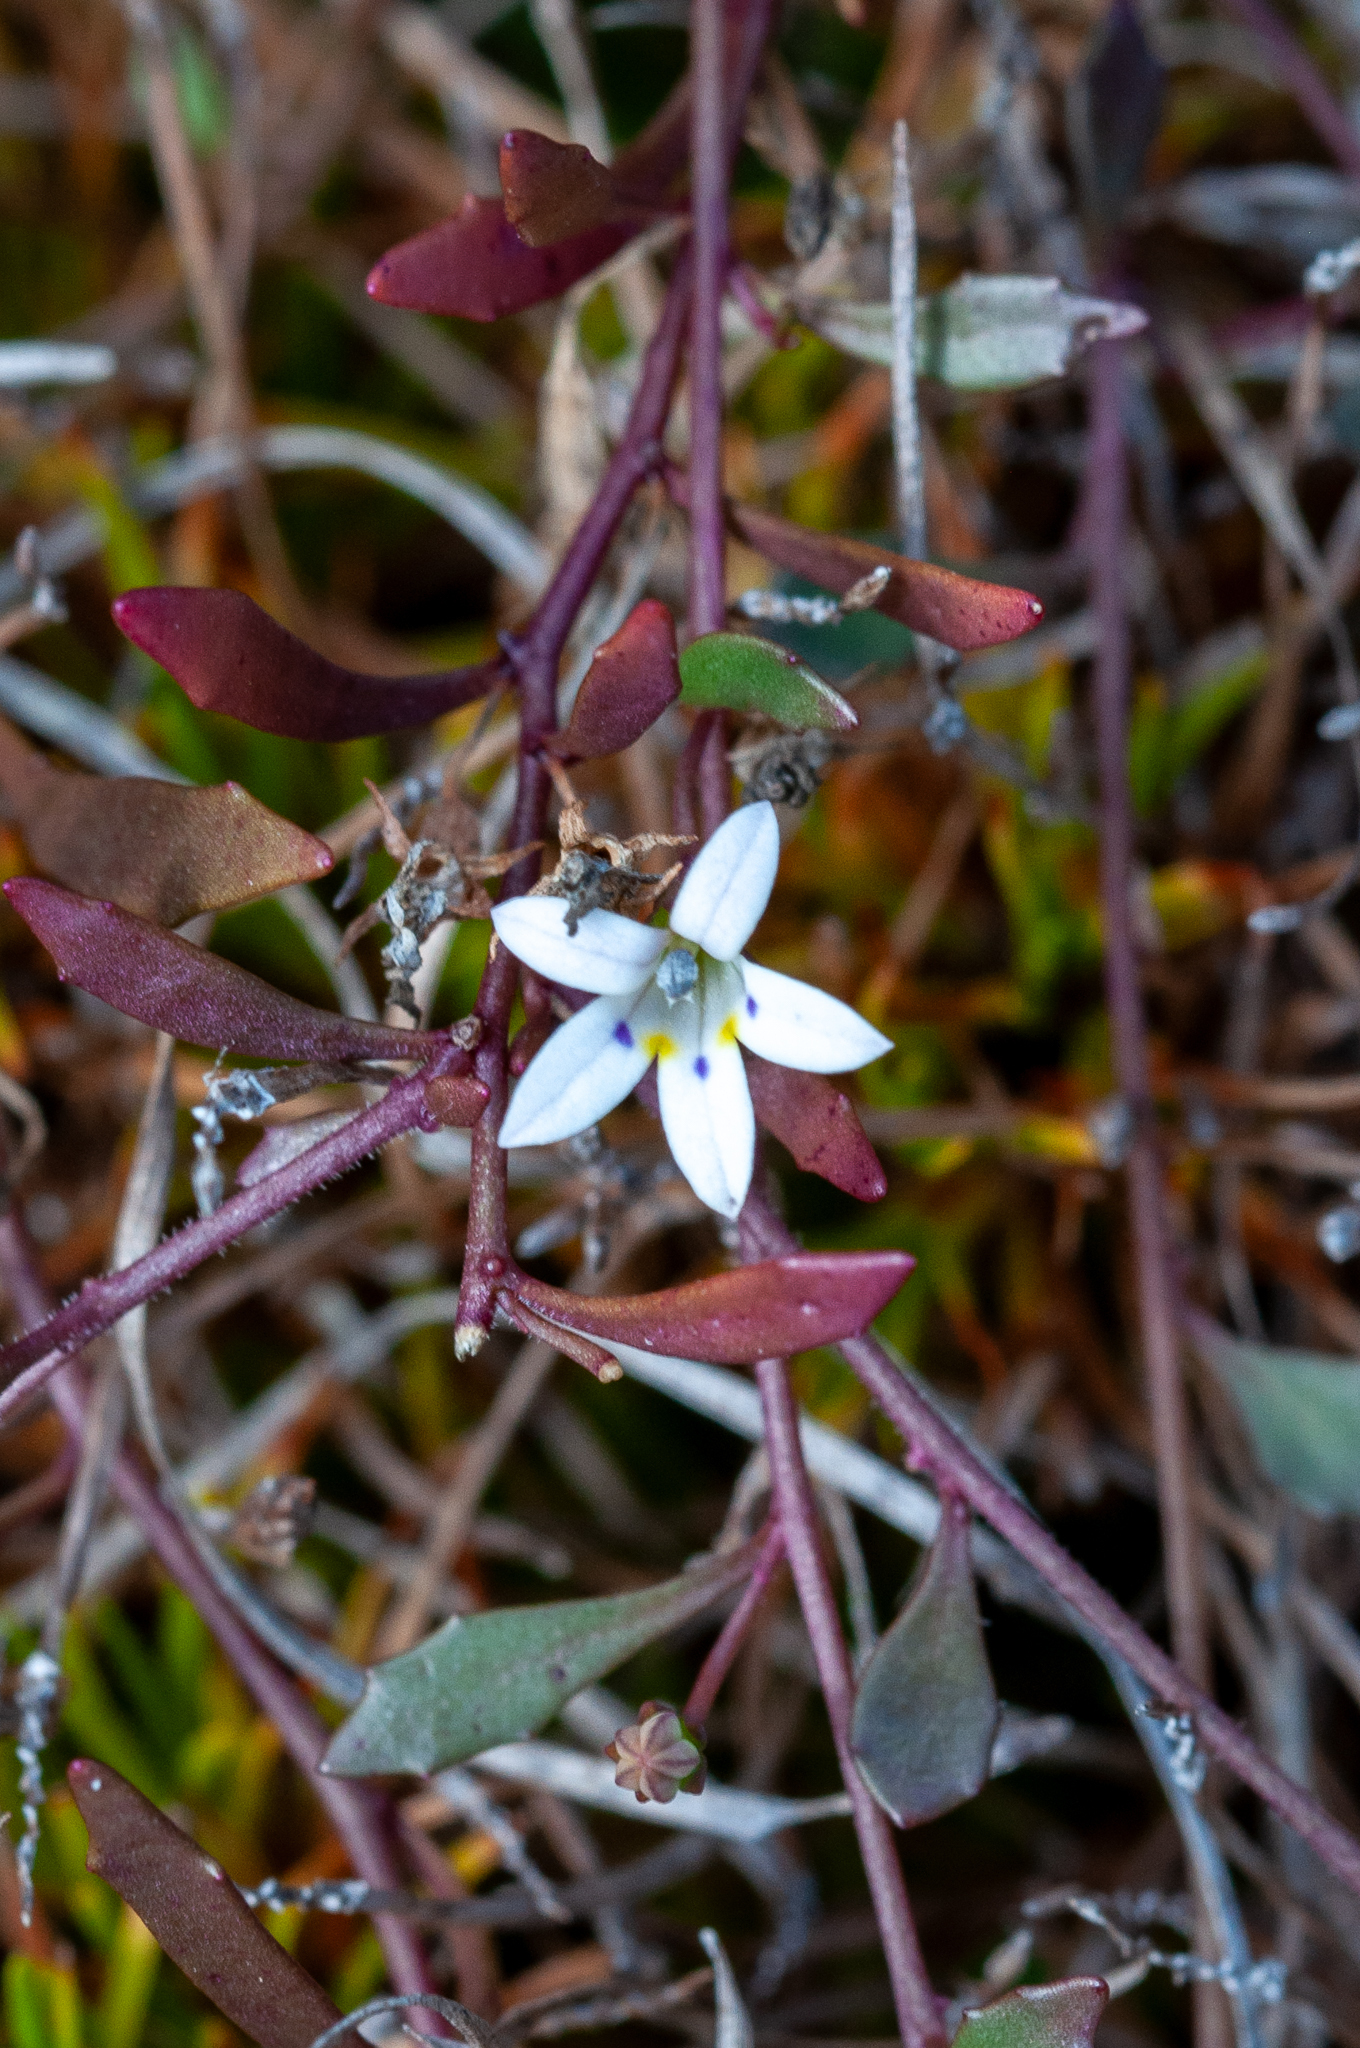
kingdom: Plantae
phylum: Tracheophyta
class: Magnoliopsida
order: Asterales
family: Campanulaceae
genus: Wimmerella
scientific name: Wimmerella secunda
